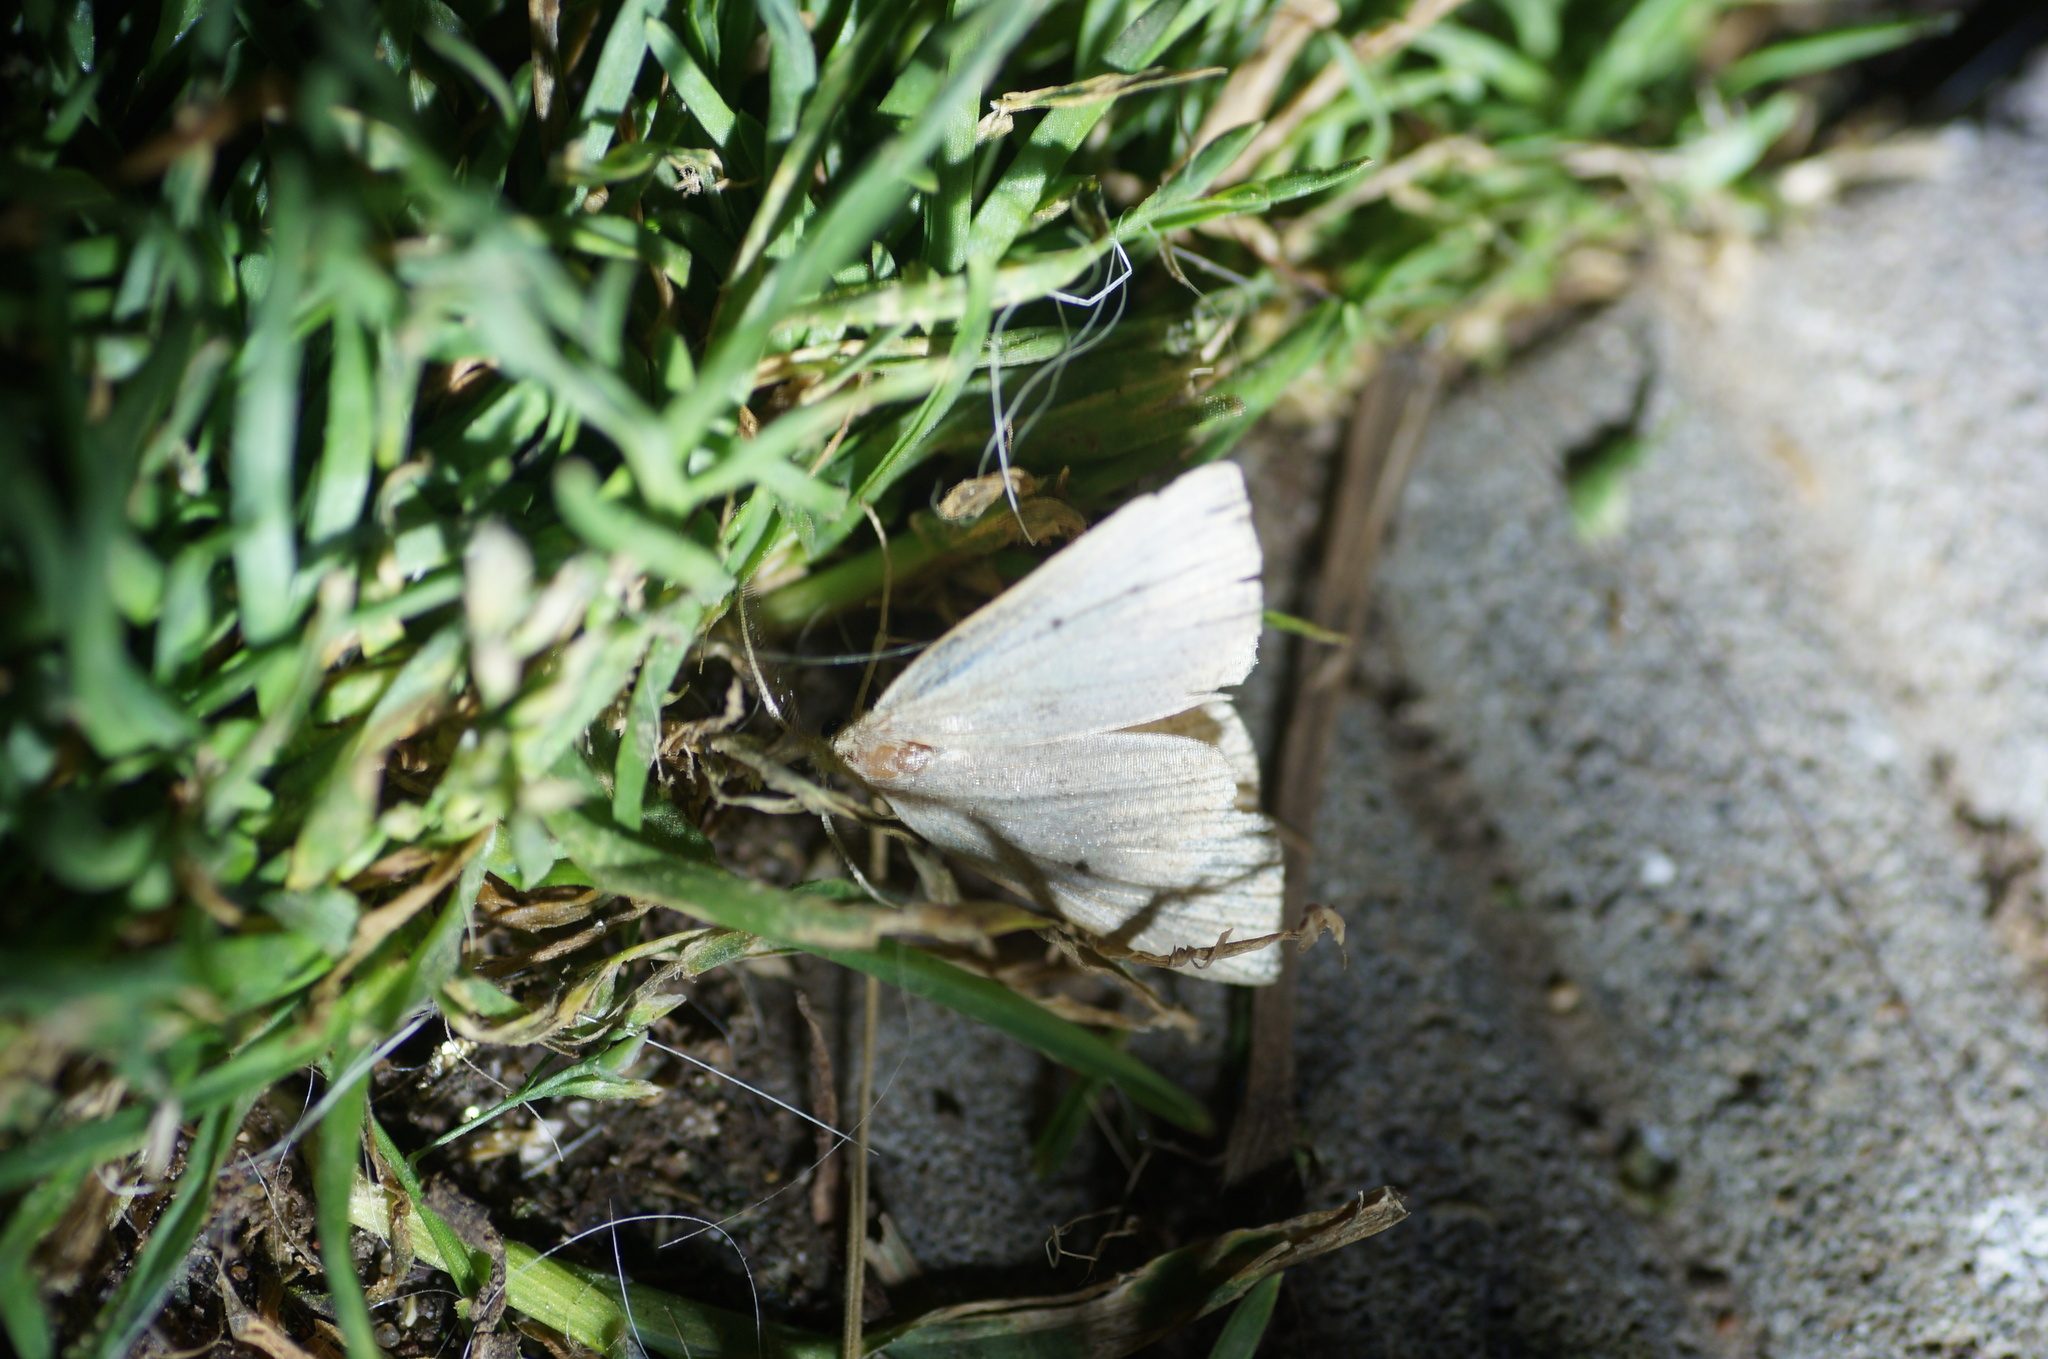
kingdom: Animalia
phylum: Arthropoda
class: Insecta
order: Lepidoptera
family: Erebidae
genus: Macrochilo
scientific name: Macrochilo cribrumalis
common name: Dotted fan-foot
